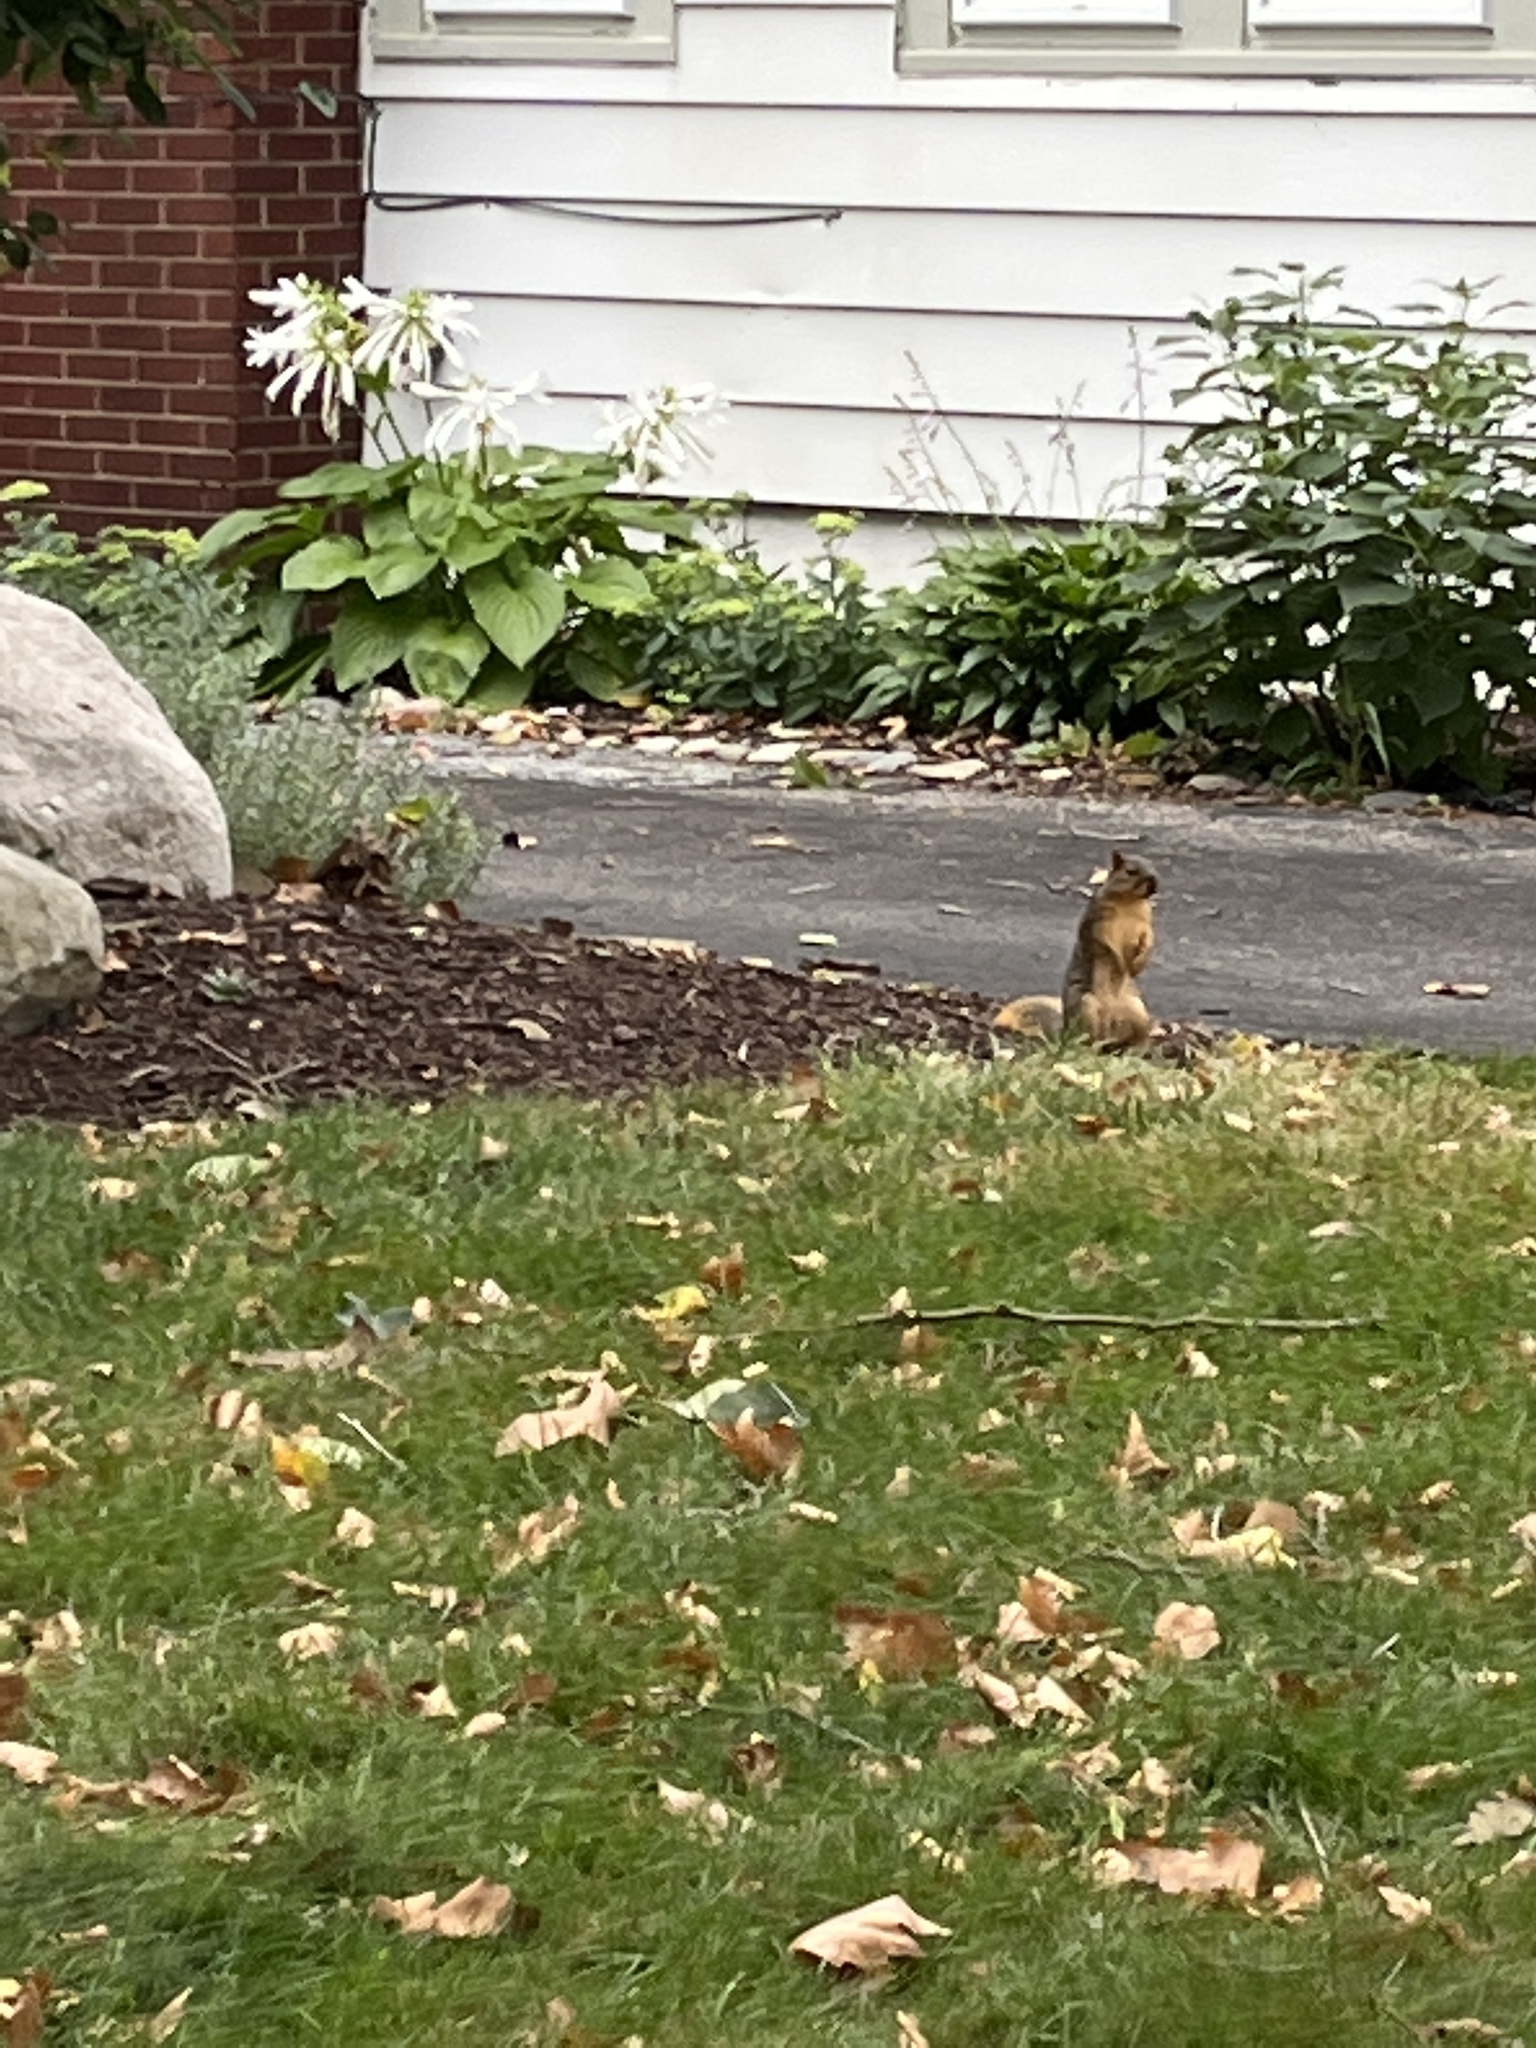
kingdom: Animalia
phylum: Chordata
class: Mammalia
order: Rodentia
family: Sciuridae
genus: Sciurus
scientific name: Sciurus niger
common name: Fox squirrel
